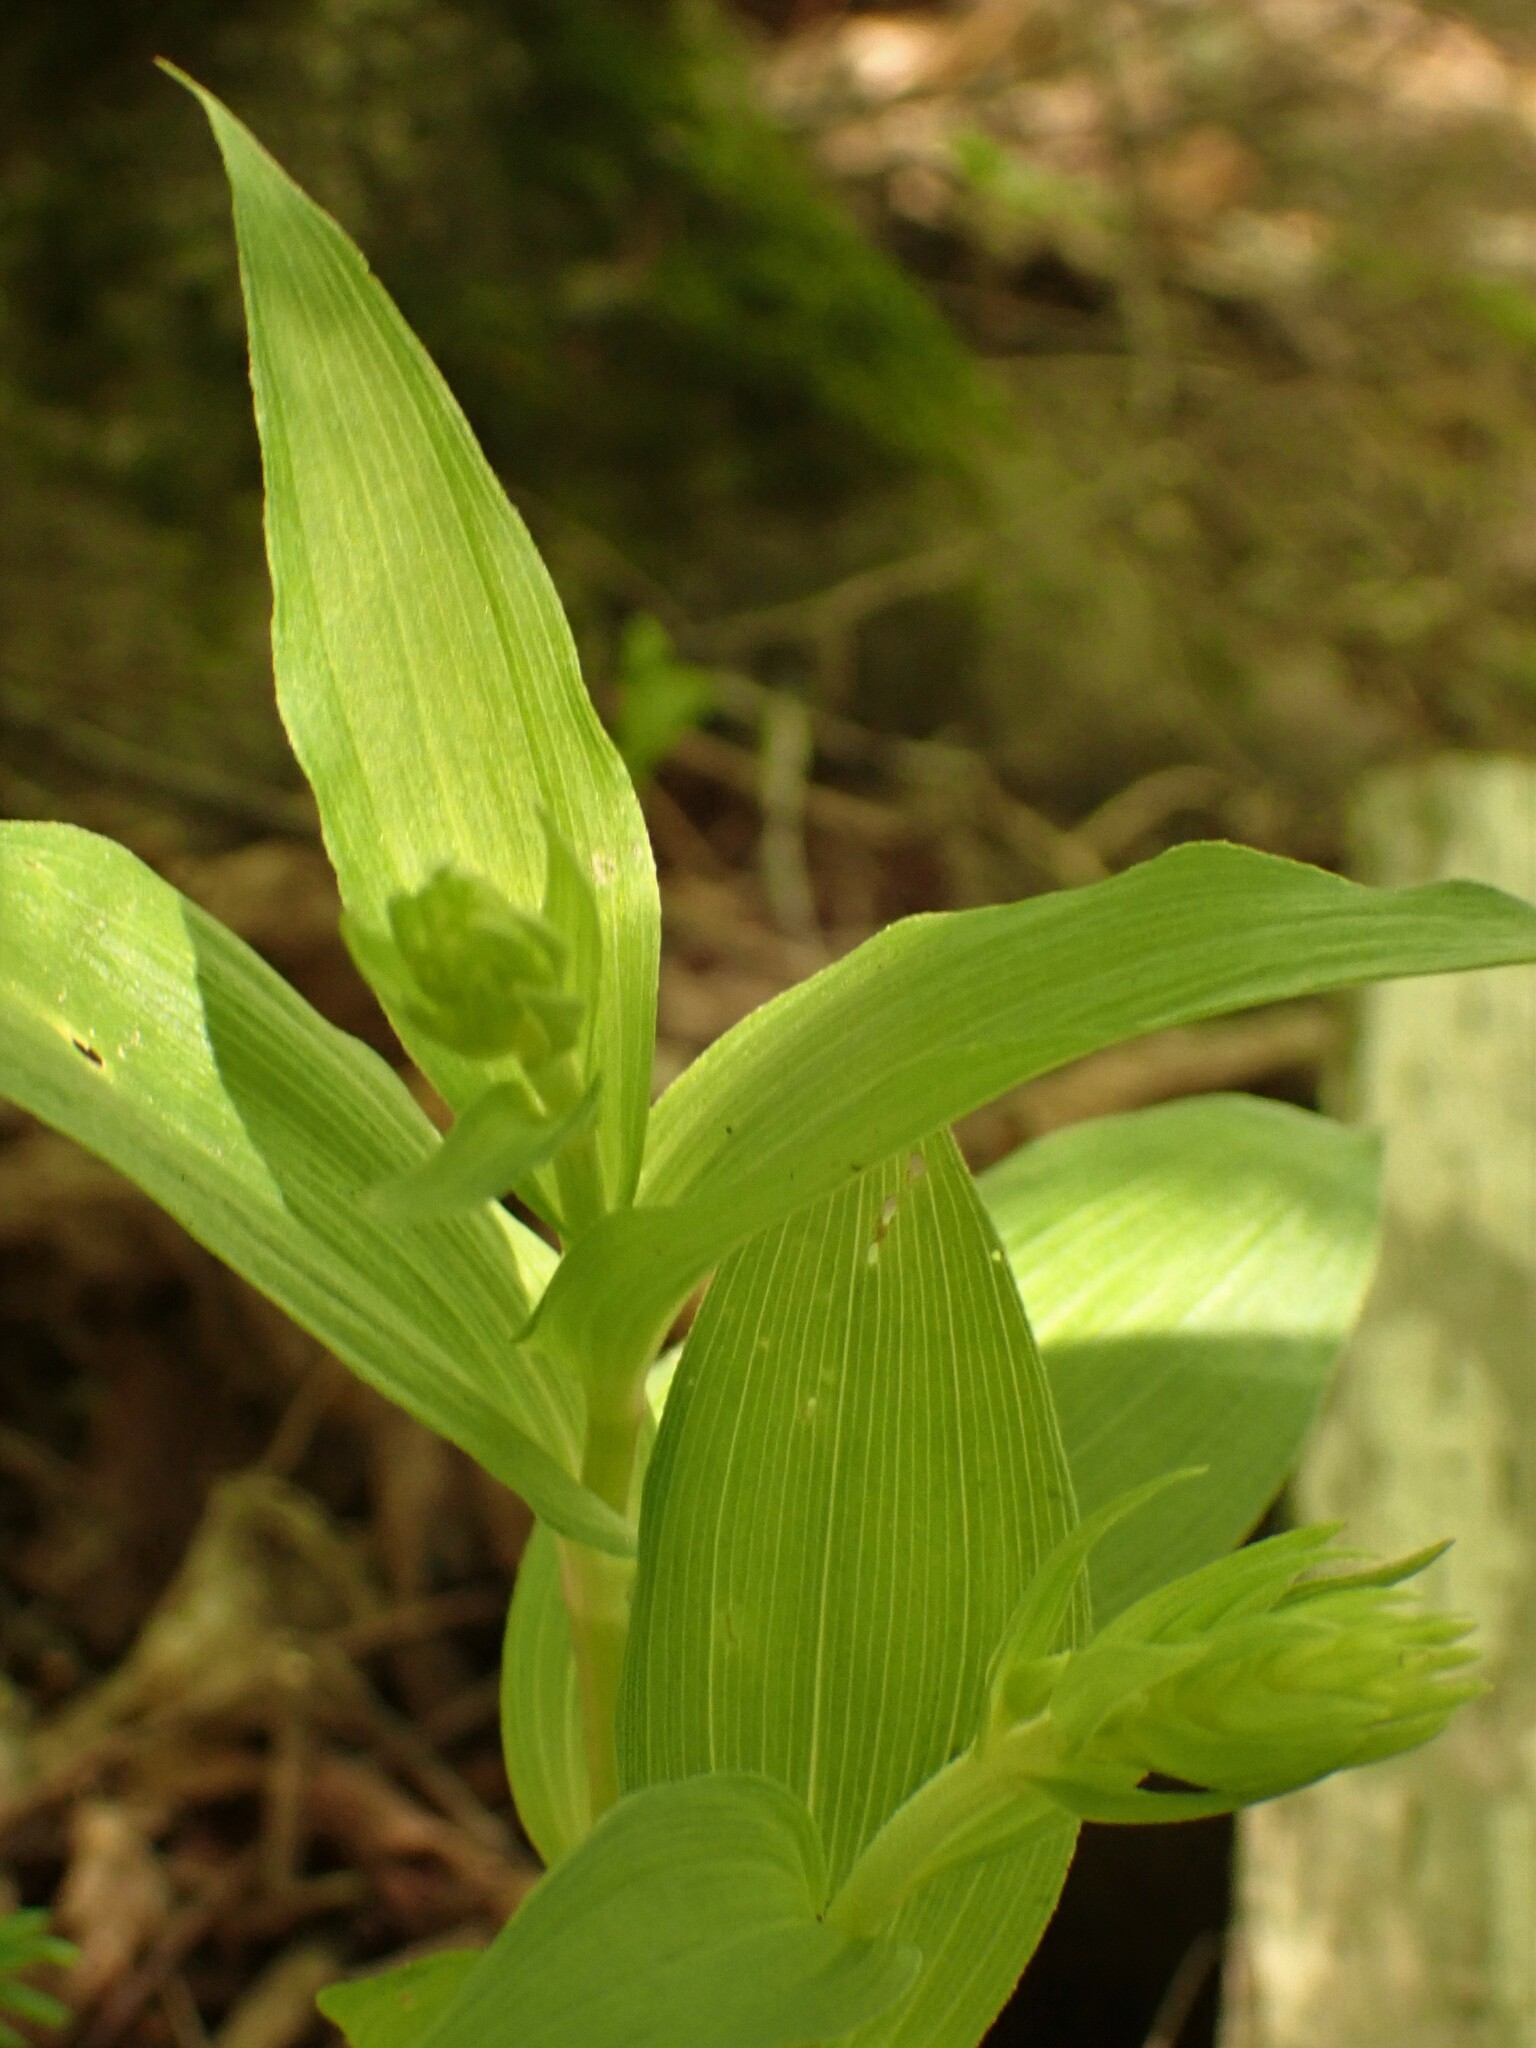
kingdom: Plantae
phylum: Tracheophyta
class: Liliopsida
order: Asparagales
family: Orchidaceae
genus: Epipactis
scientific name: Epipactis helleborine
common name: Broad-leaved helleborine
